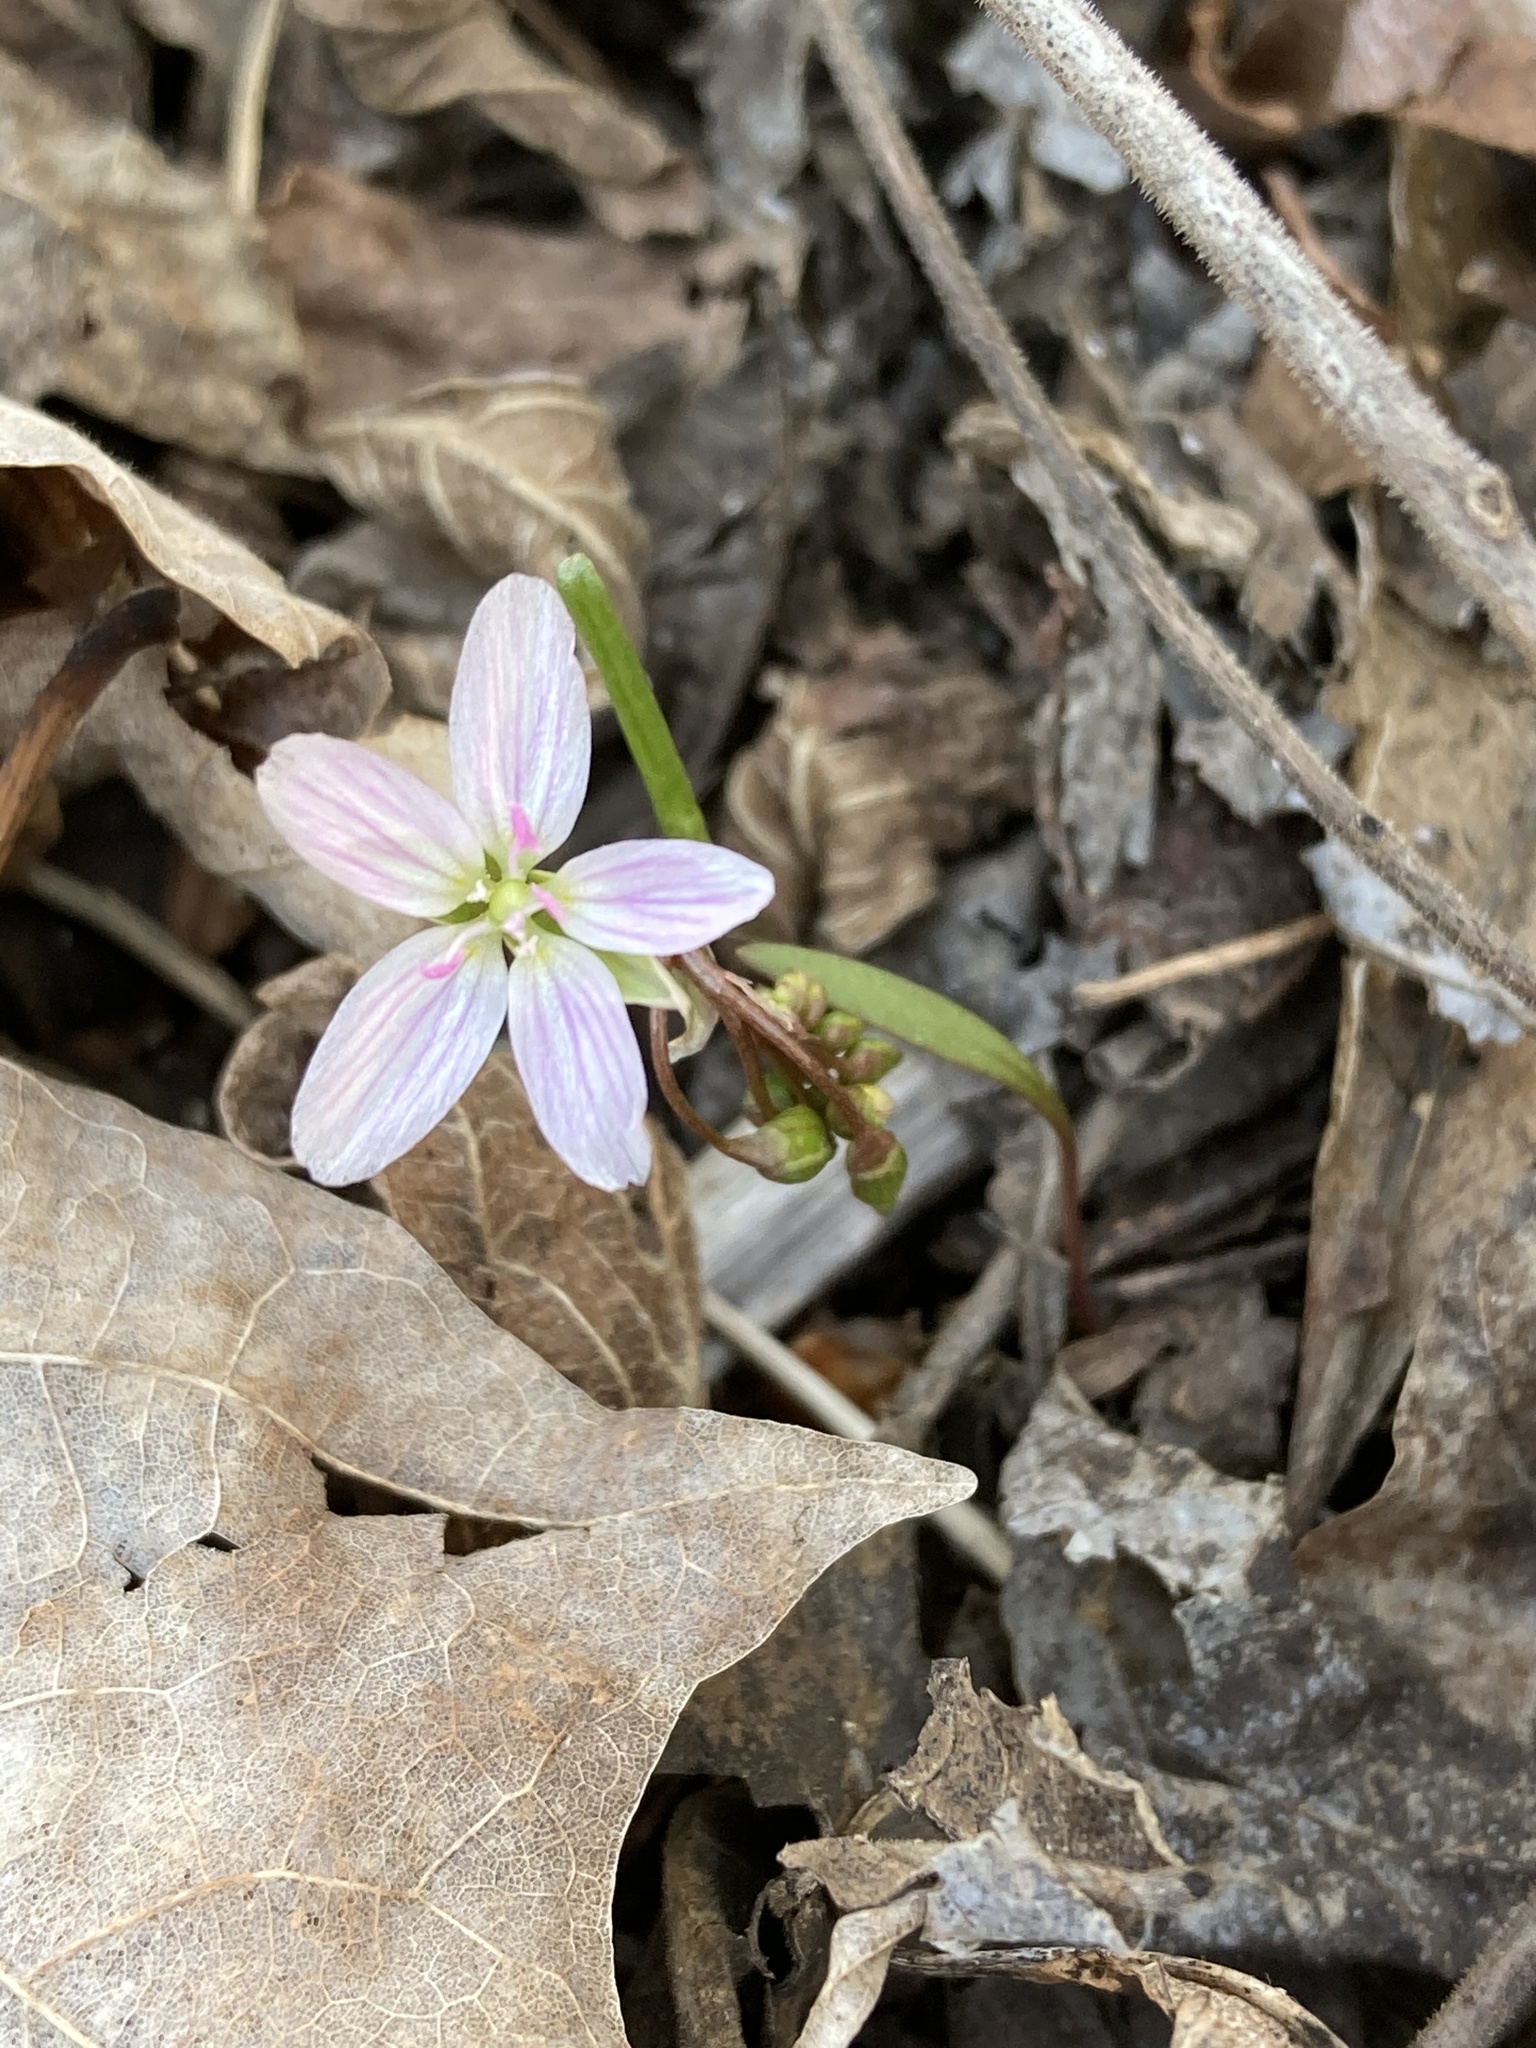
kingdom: Plantae
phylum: Tracheophyta
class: Magnoliopsida
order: Caryophyllales
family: Montiaceae
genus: Claytonia
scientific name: Claytonia virginica
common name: Virginia springbeauty
